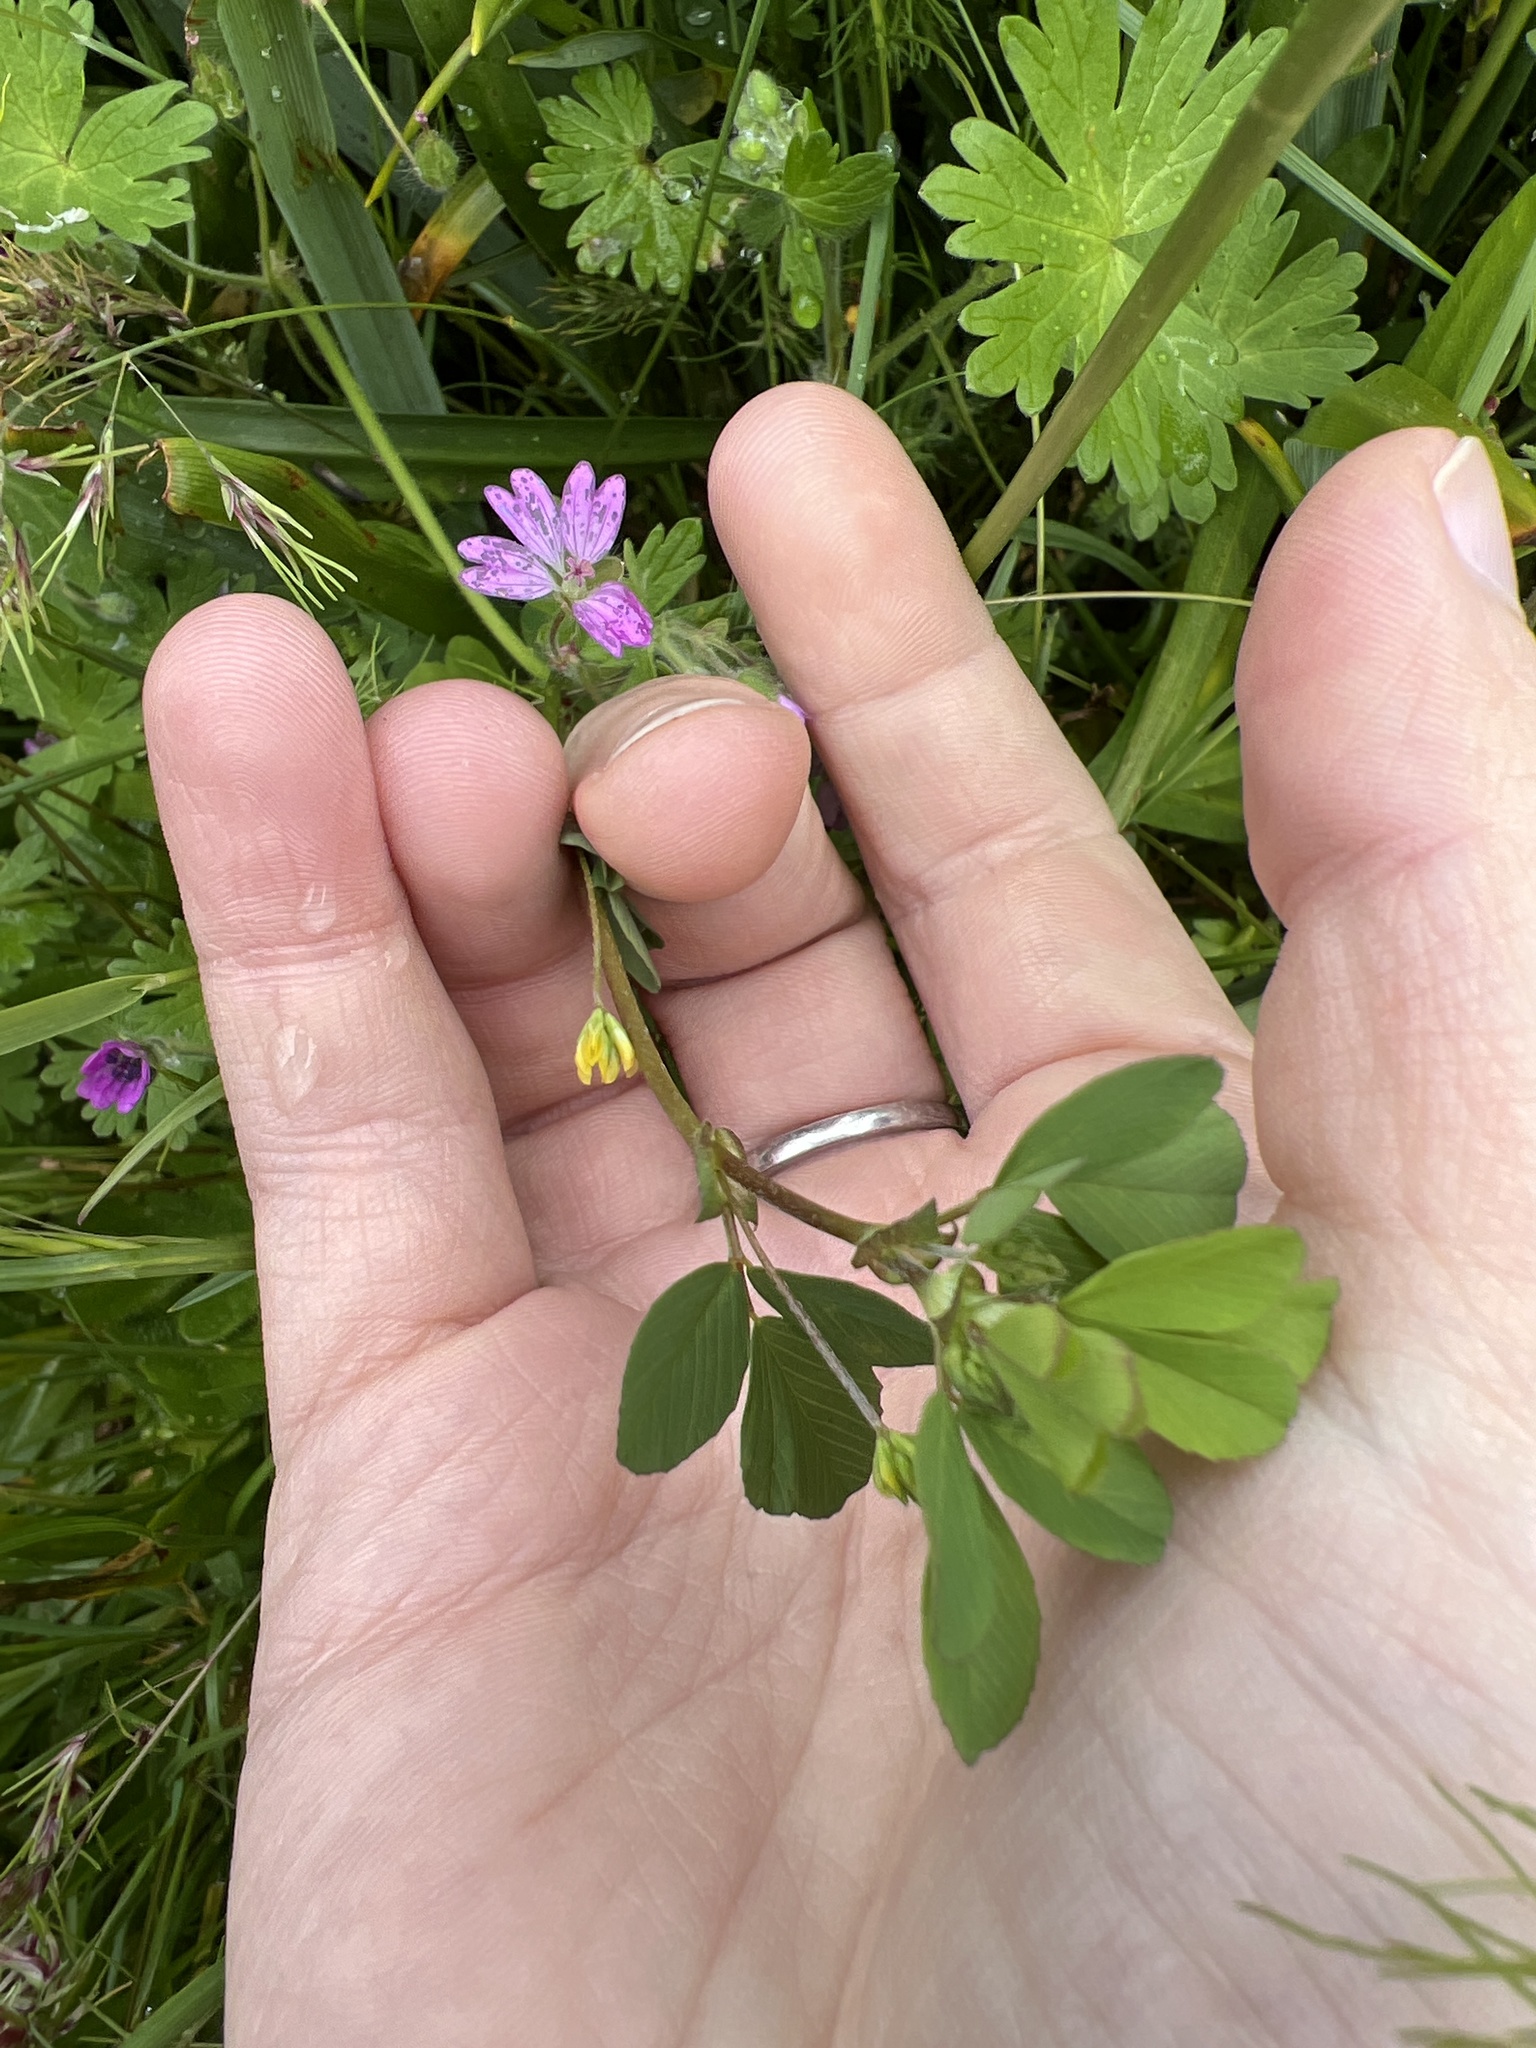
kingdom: Plantae
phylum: Tracheophyta
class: Magnoliopsida
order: Fabales
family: Fabaceae
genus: Trifolium
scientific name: Trifolium dubium
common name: Suckling clover
